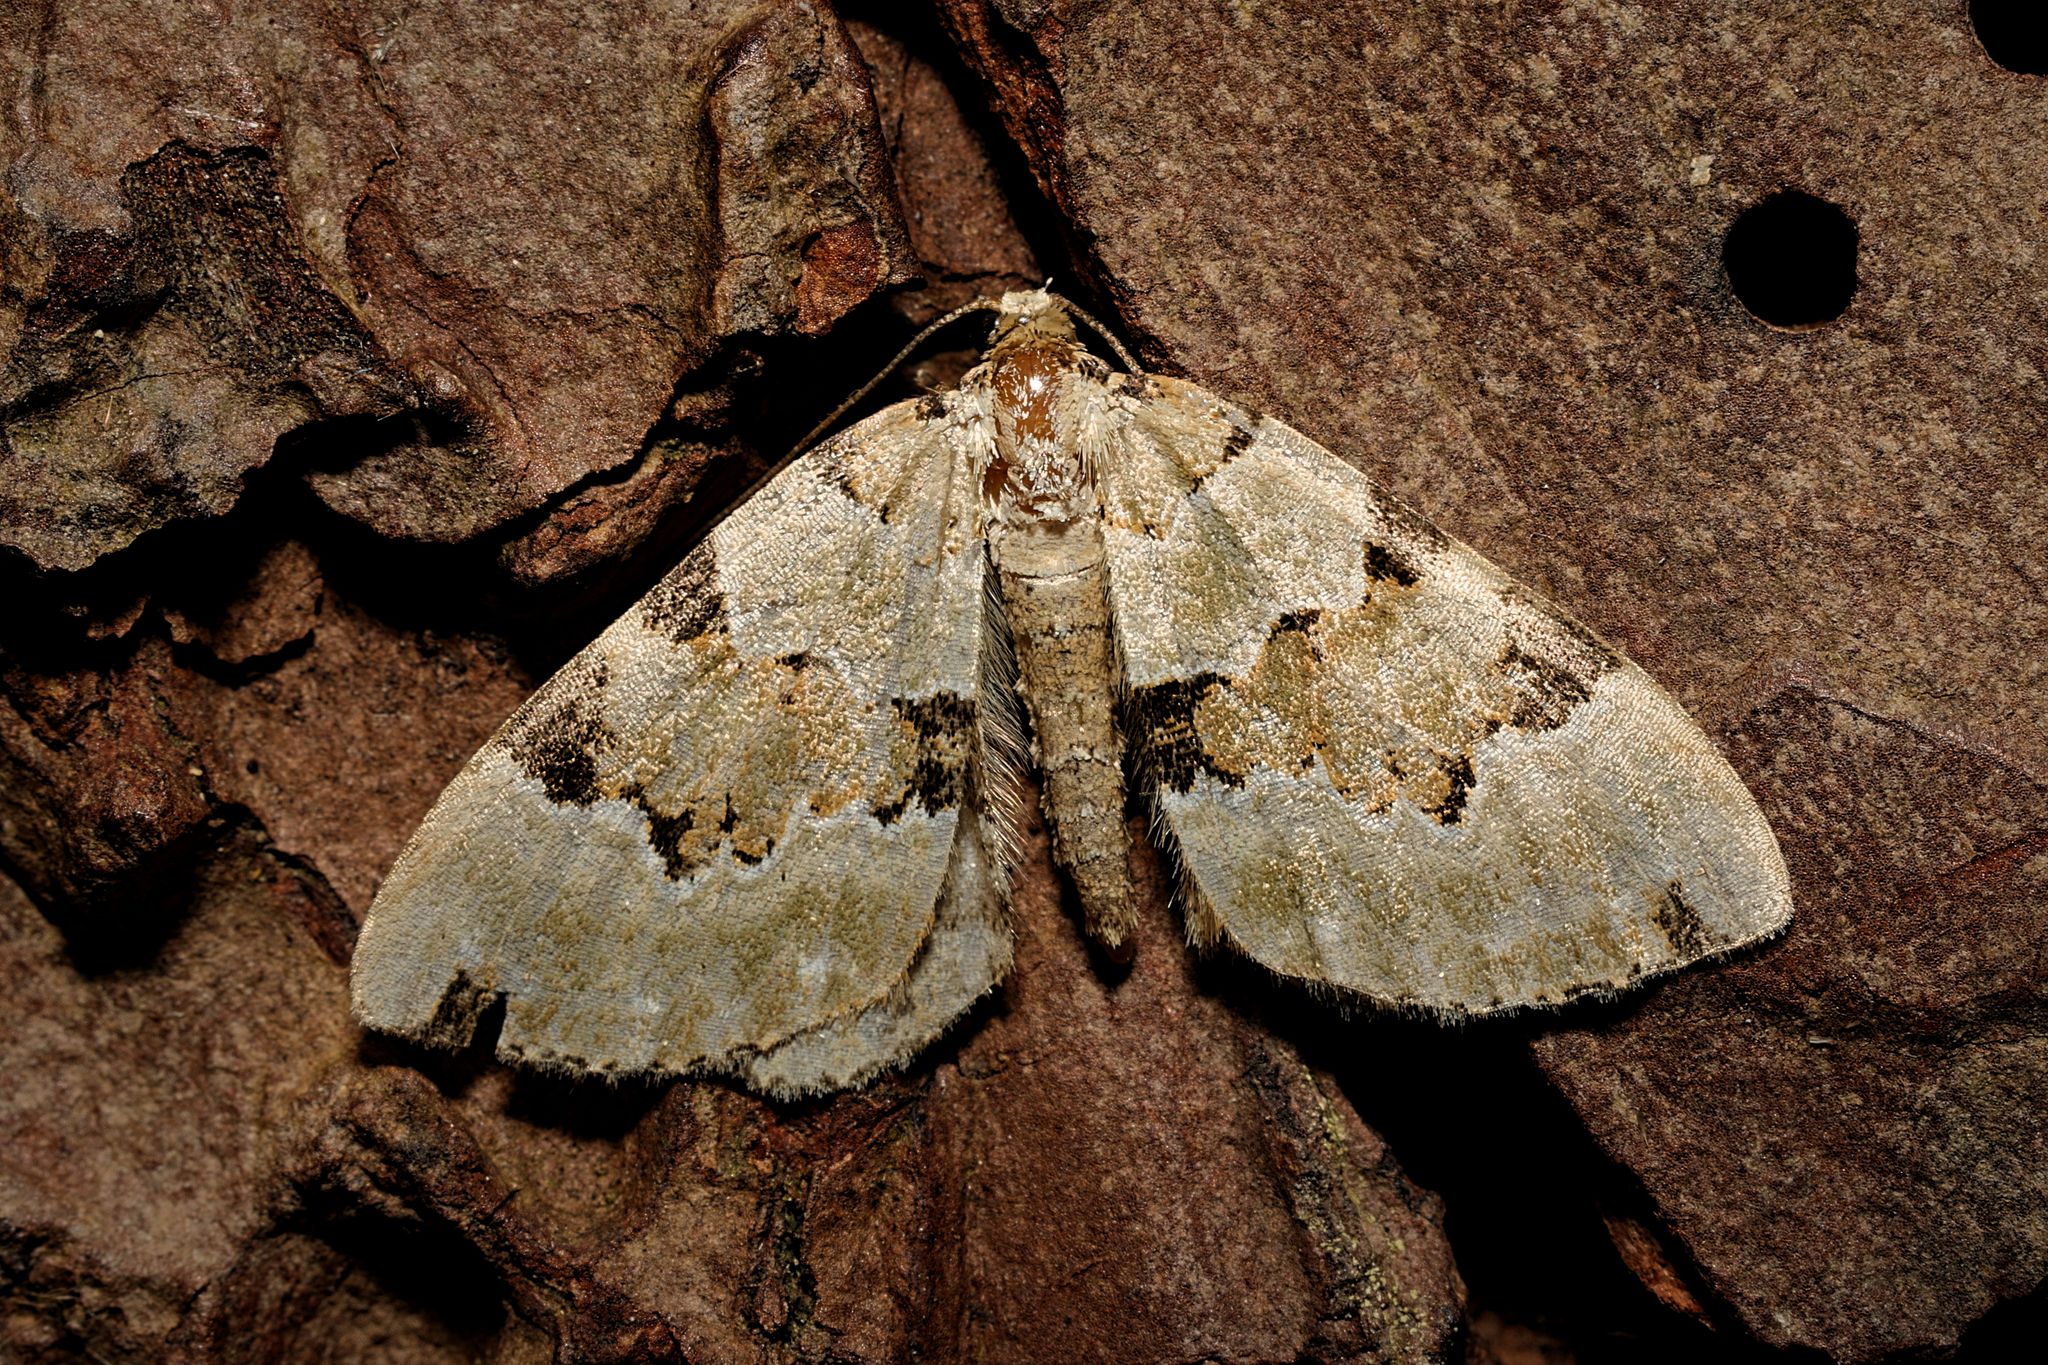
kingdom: Animalia
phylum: Arthropoda
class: Insecta
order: Lepidoptera
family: Geometridae
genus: Colostygia
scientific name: Colostygia pectinataria
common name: Green carpet
